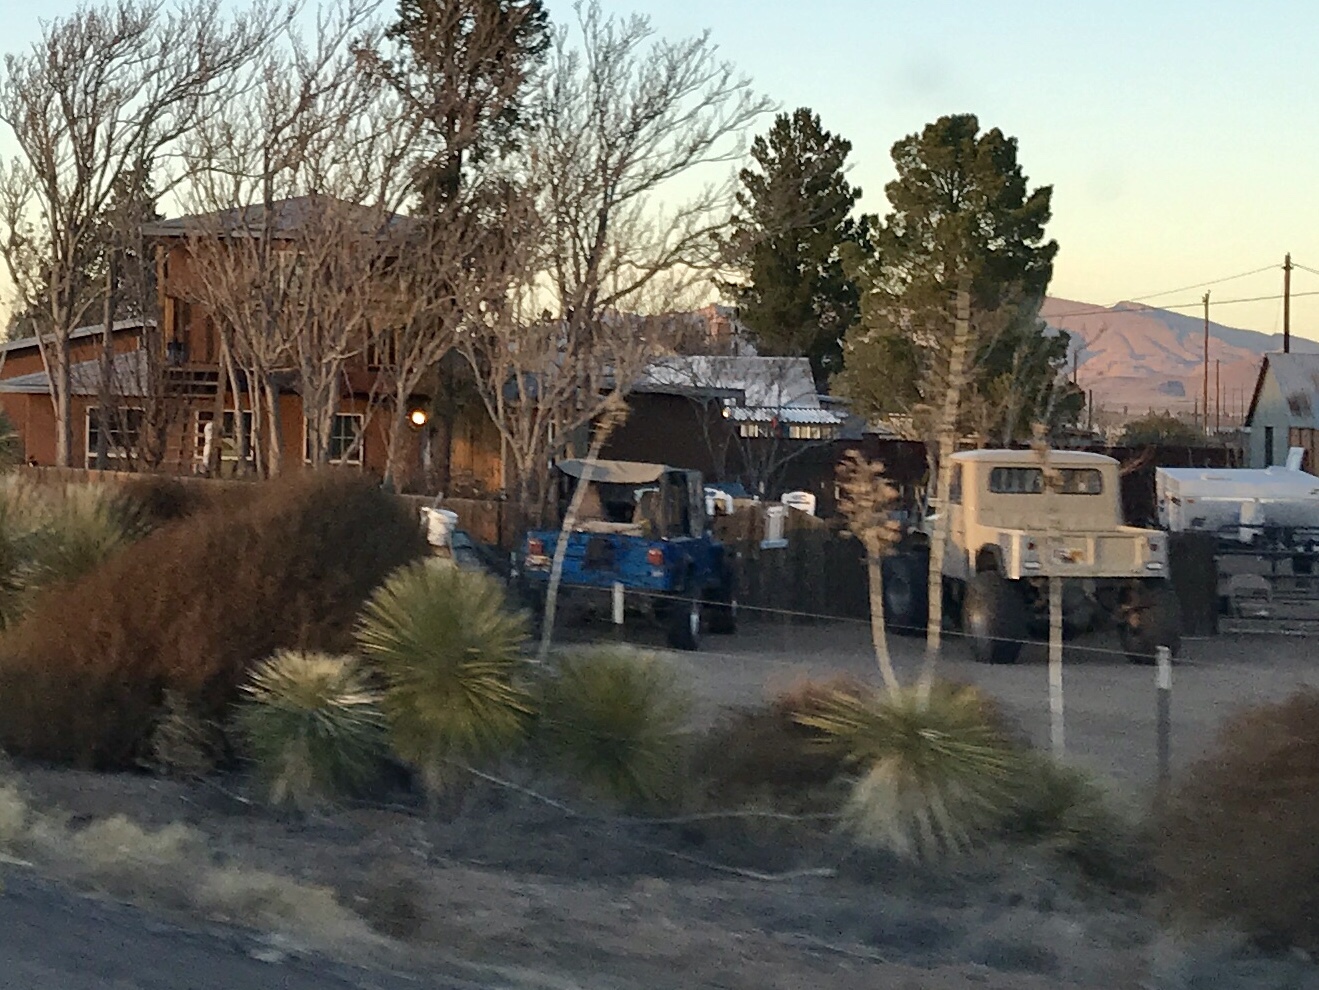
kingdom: Plantae
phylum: Tracheophyta
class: Liliopsida
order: Asparagales
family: Asparagaceae
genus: Yucca
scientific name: Yucca elata
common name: Palmella
